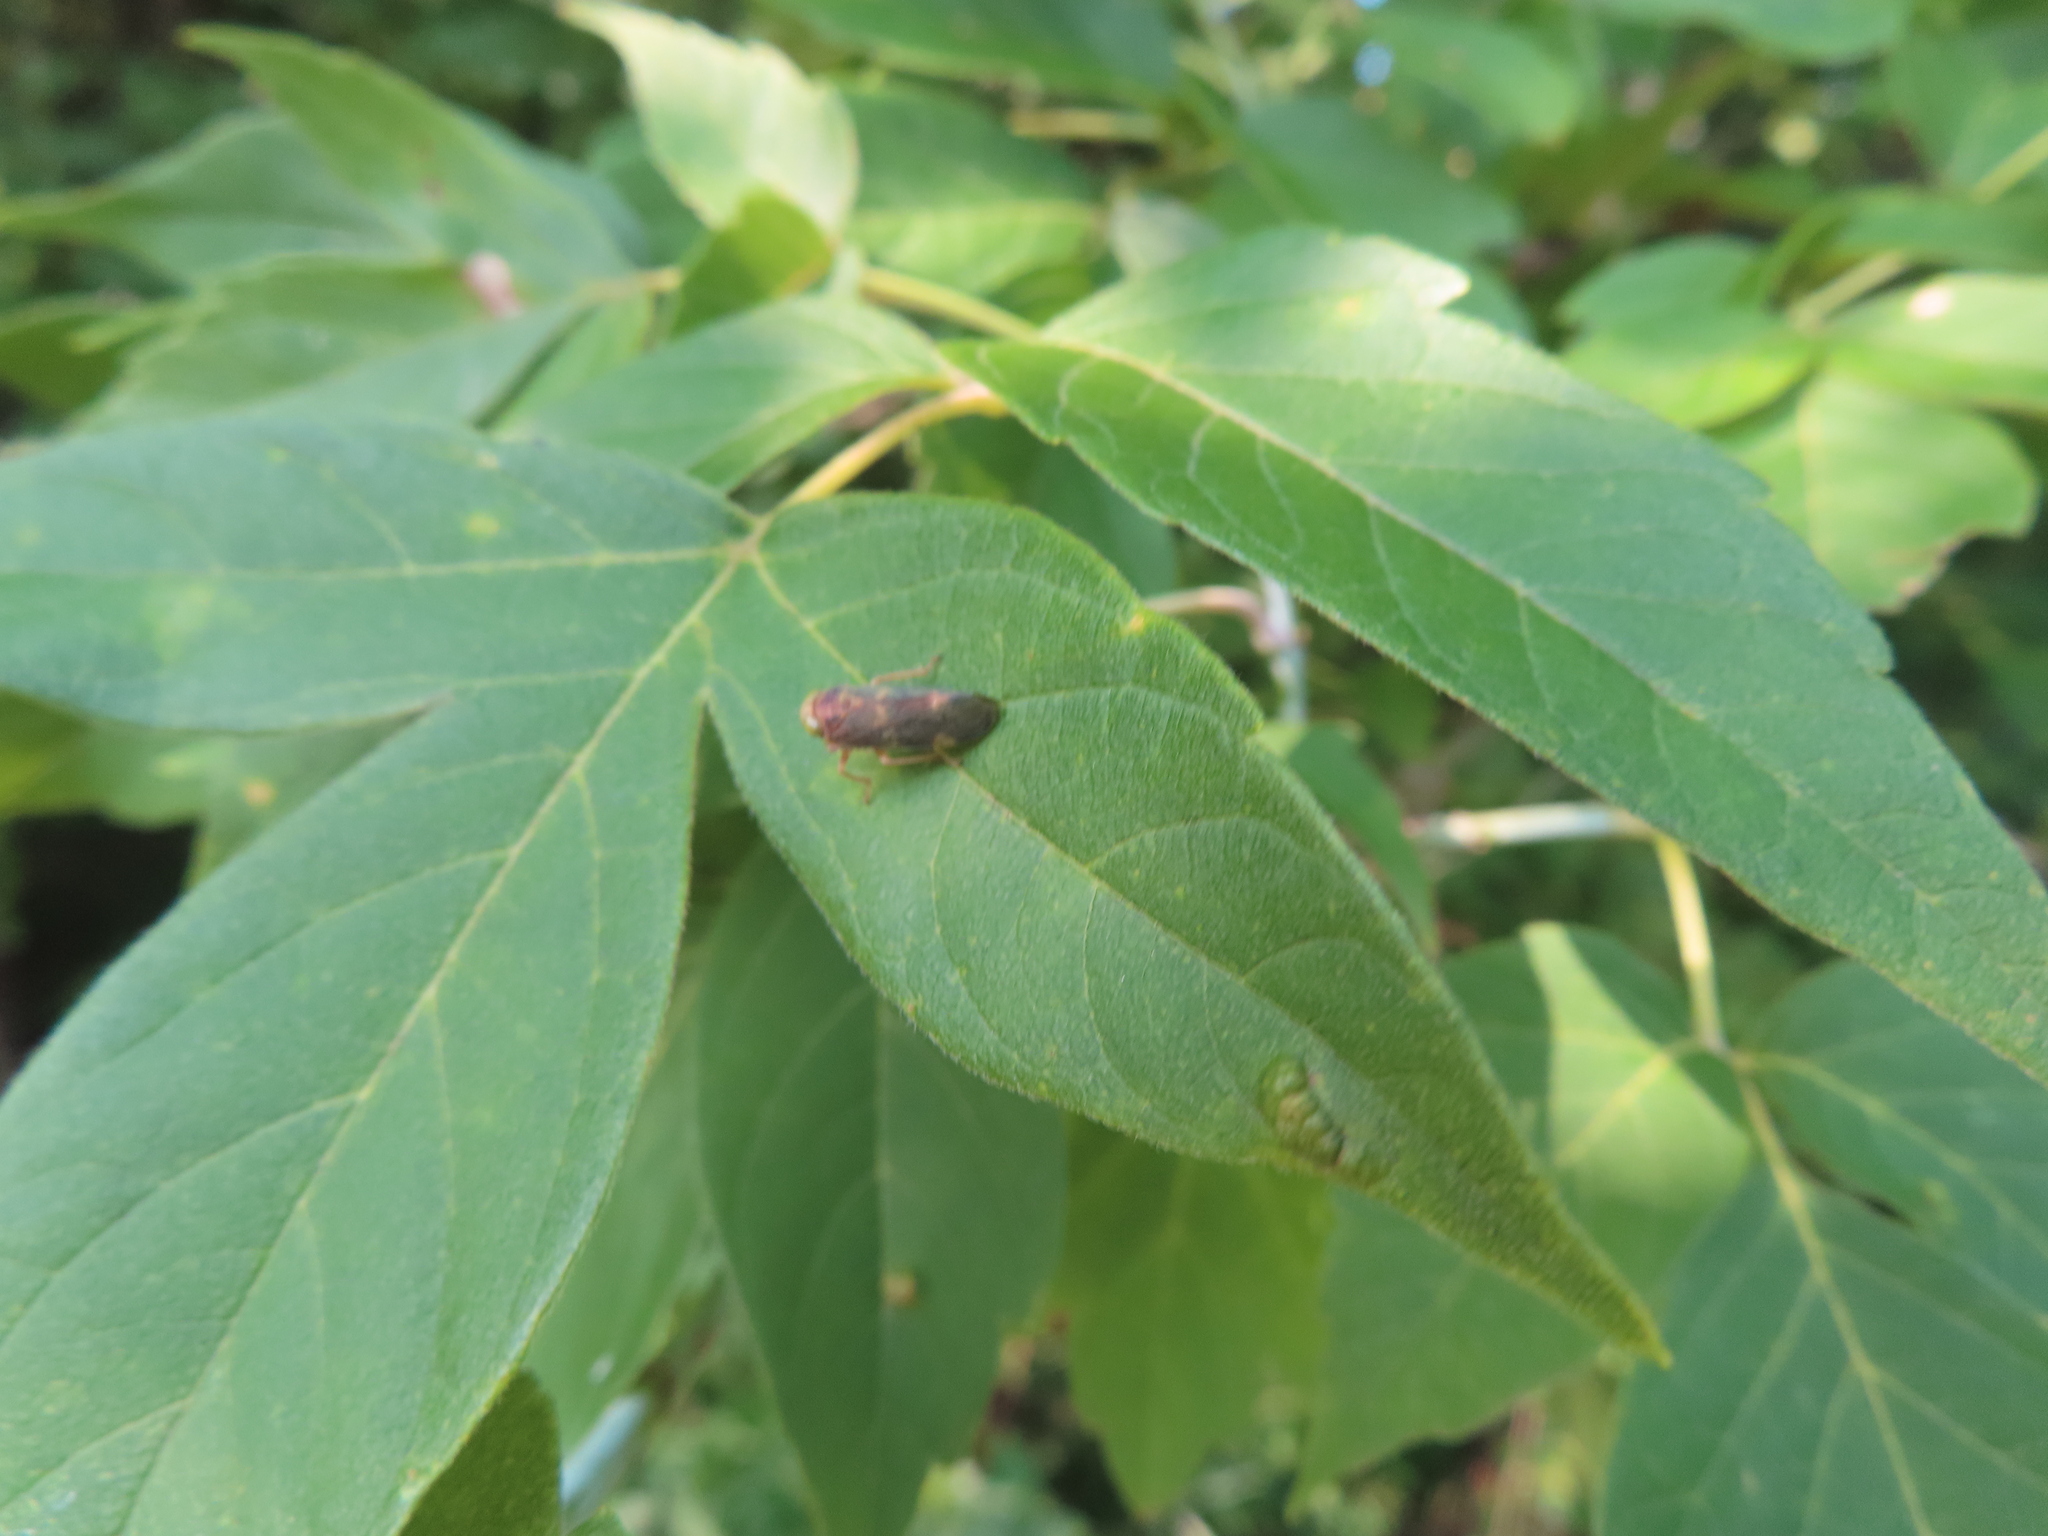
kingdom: Animalia
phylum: Arthropoda
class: Insecta
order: Hemiptera
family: Cicadellidae
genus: Jikradia
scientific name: Jikradia olitoria
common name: Coppery leafhopper
